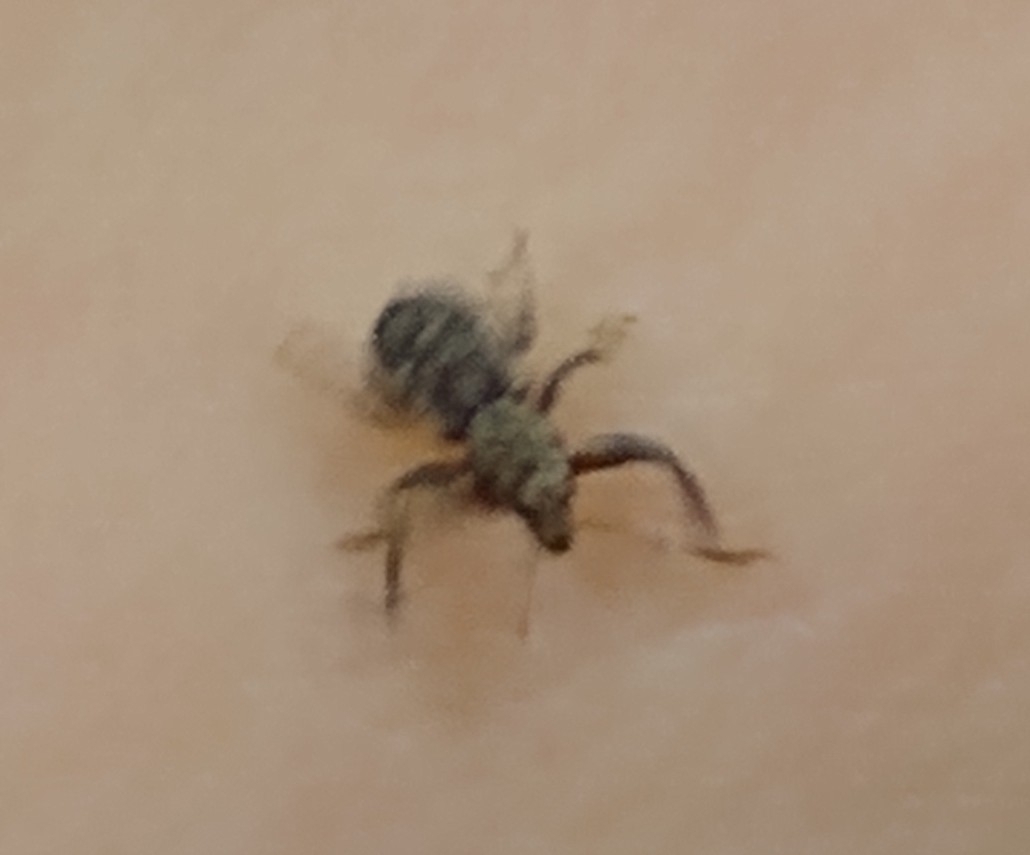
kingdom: Animalia
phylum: Arthropoda
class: Insecta
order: Coleoptera
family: Curculionidae
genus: Pandeleteius
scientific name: Pandeleteius hilaris
